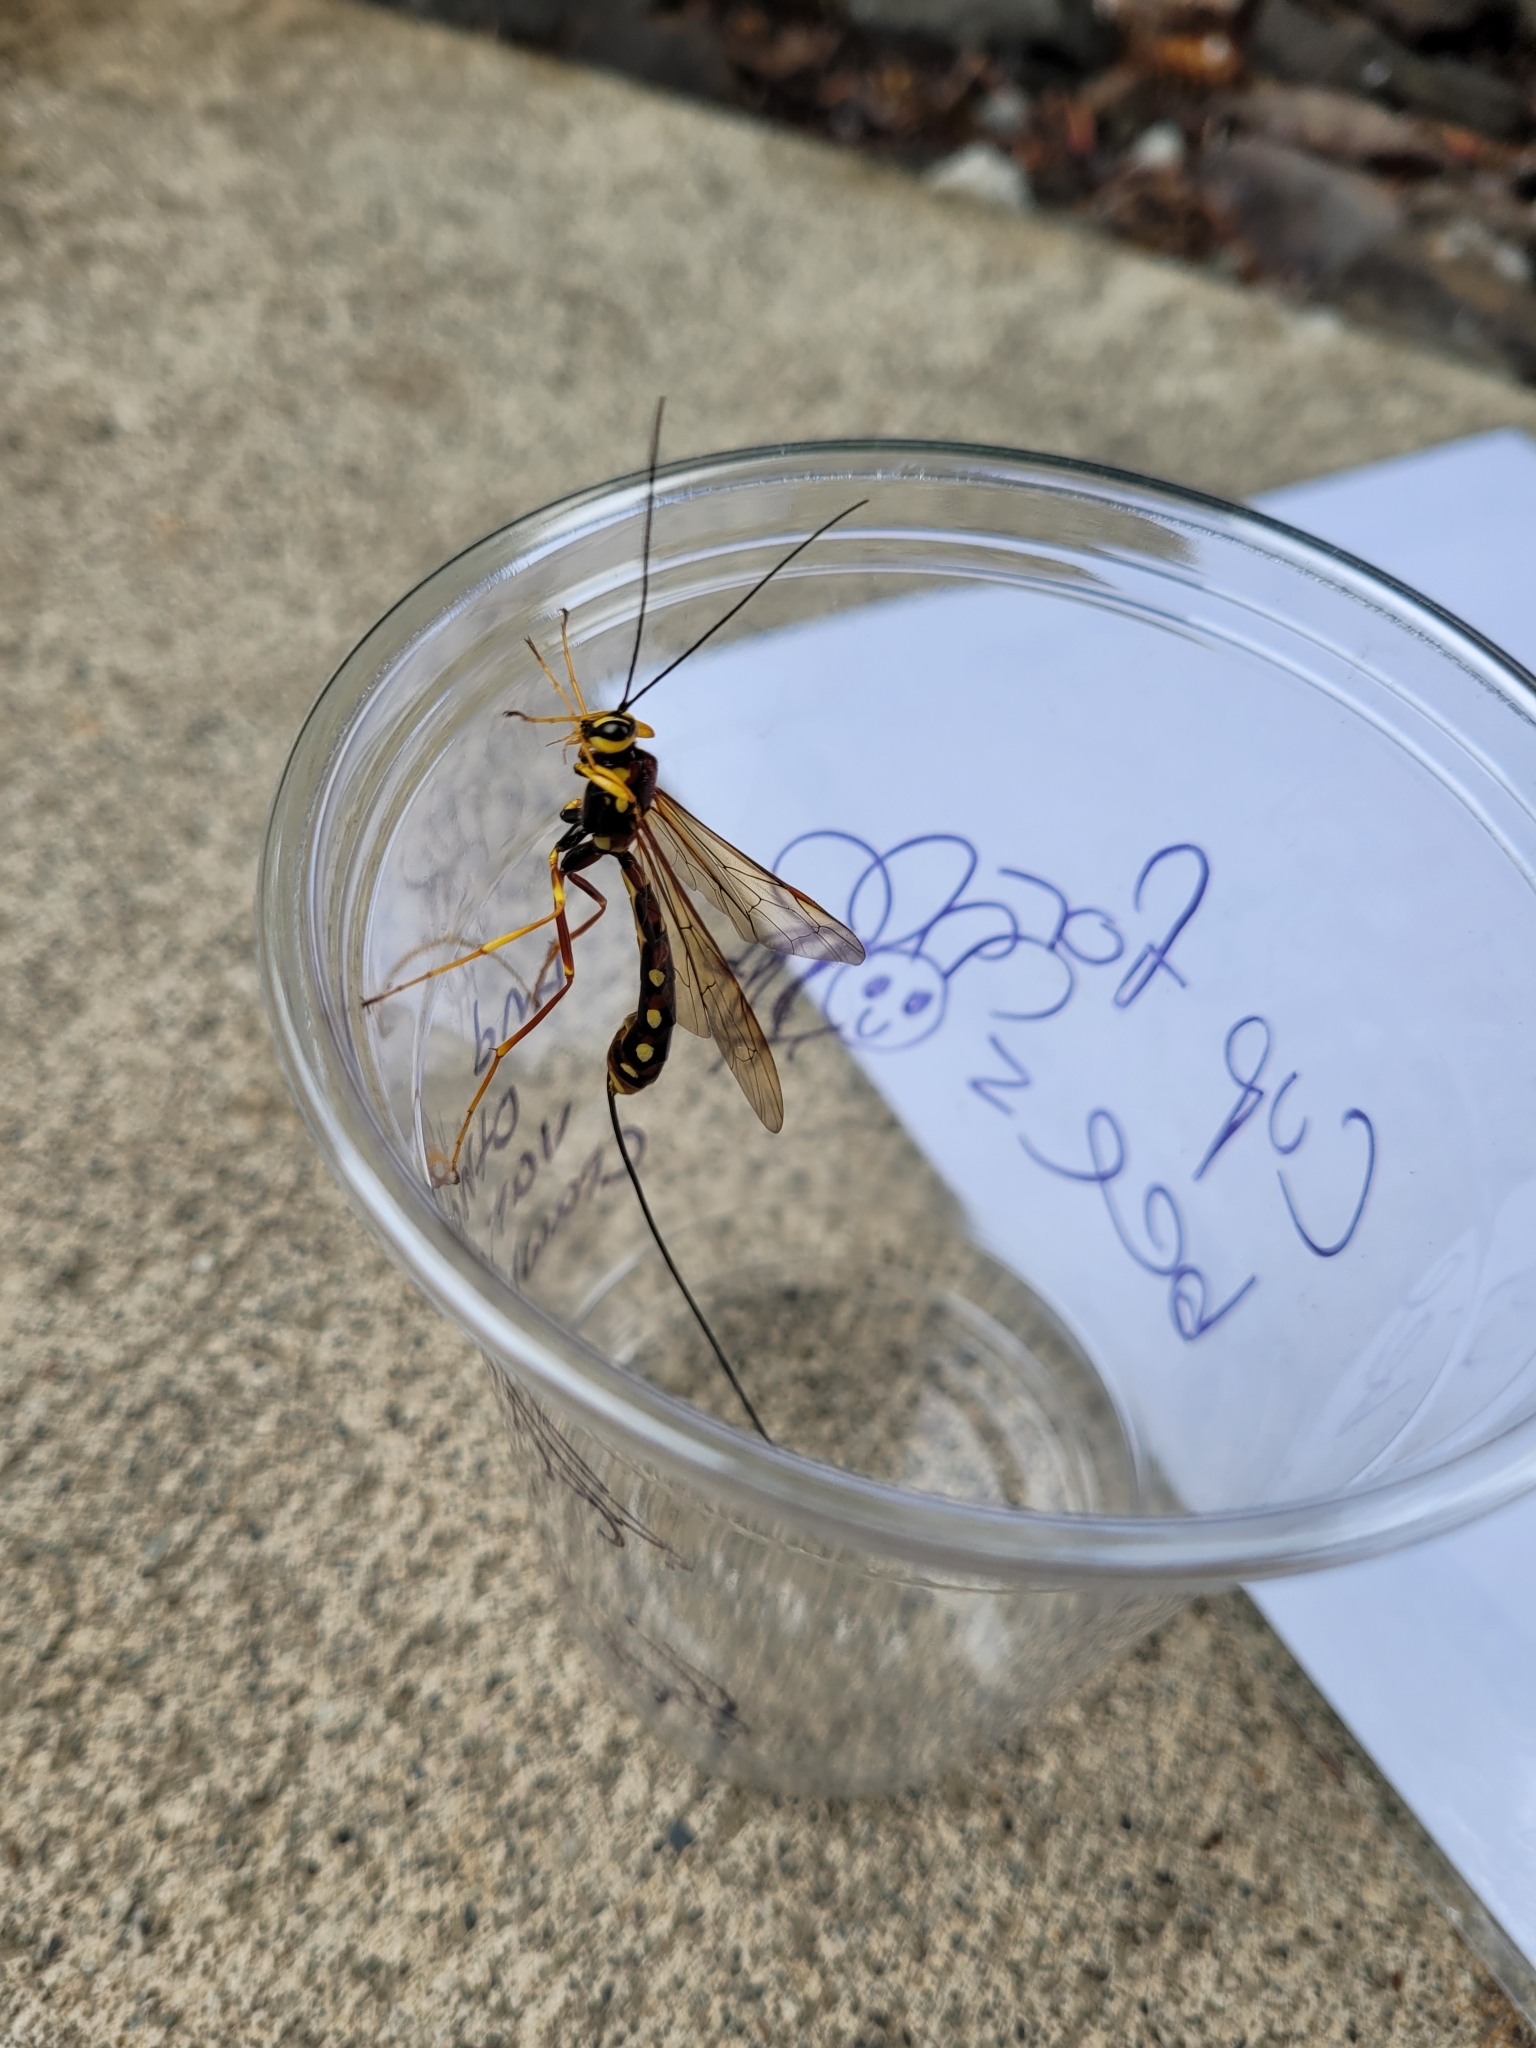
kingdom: Animalia
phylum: Arthropoda
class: Insecta
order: Hymenoptera
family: Ichneumonidae
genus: Megarhyssa
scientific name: Megarhyssa nortoni
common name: Norton's giant ichneumonid wasp
